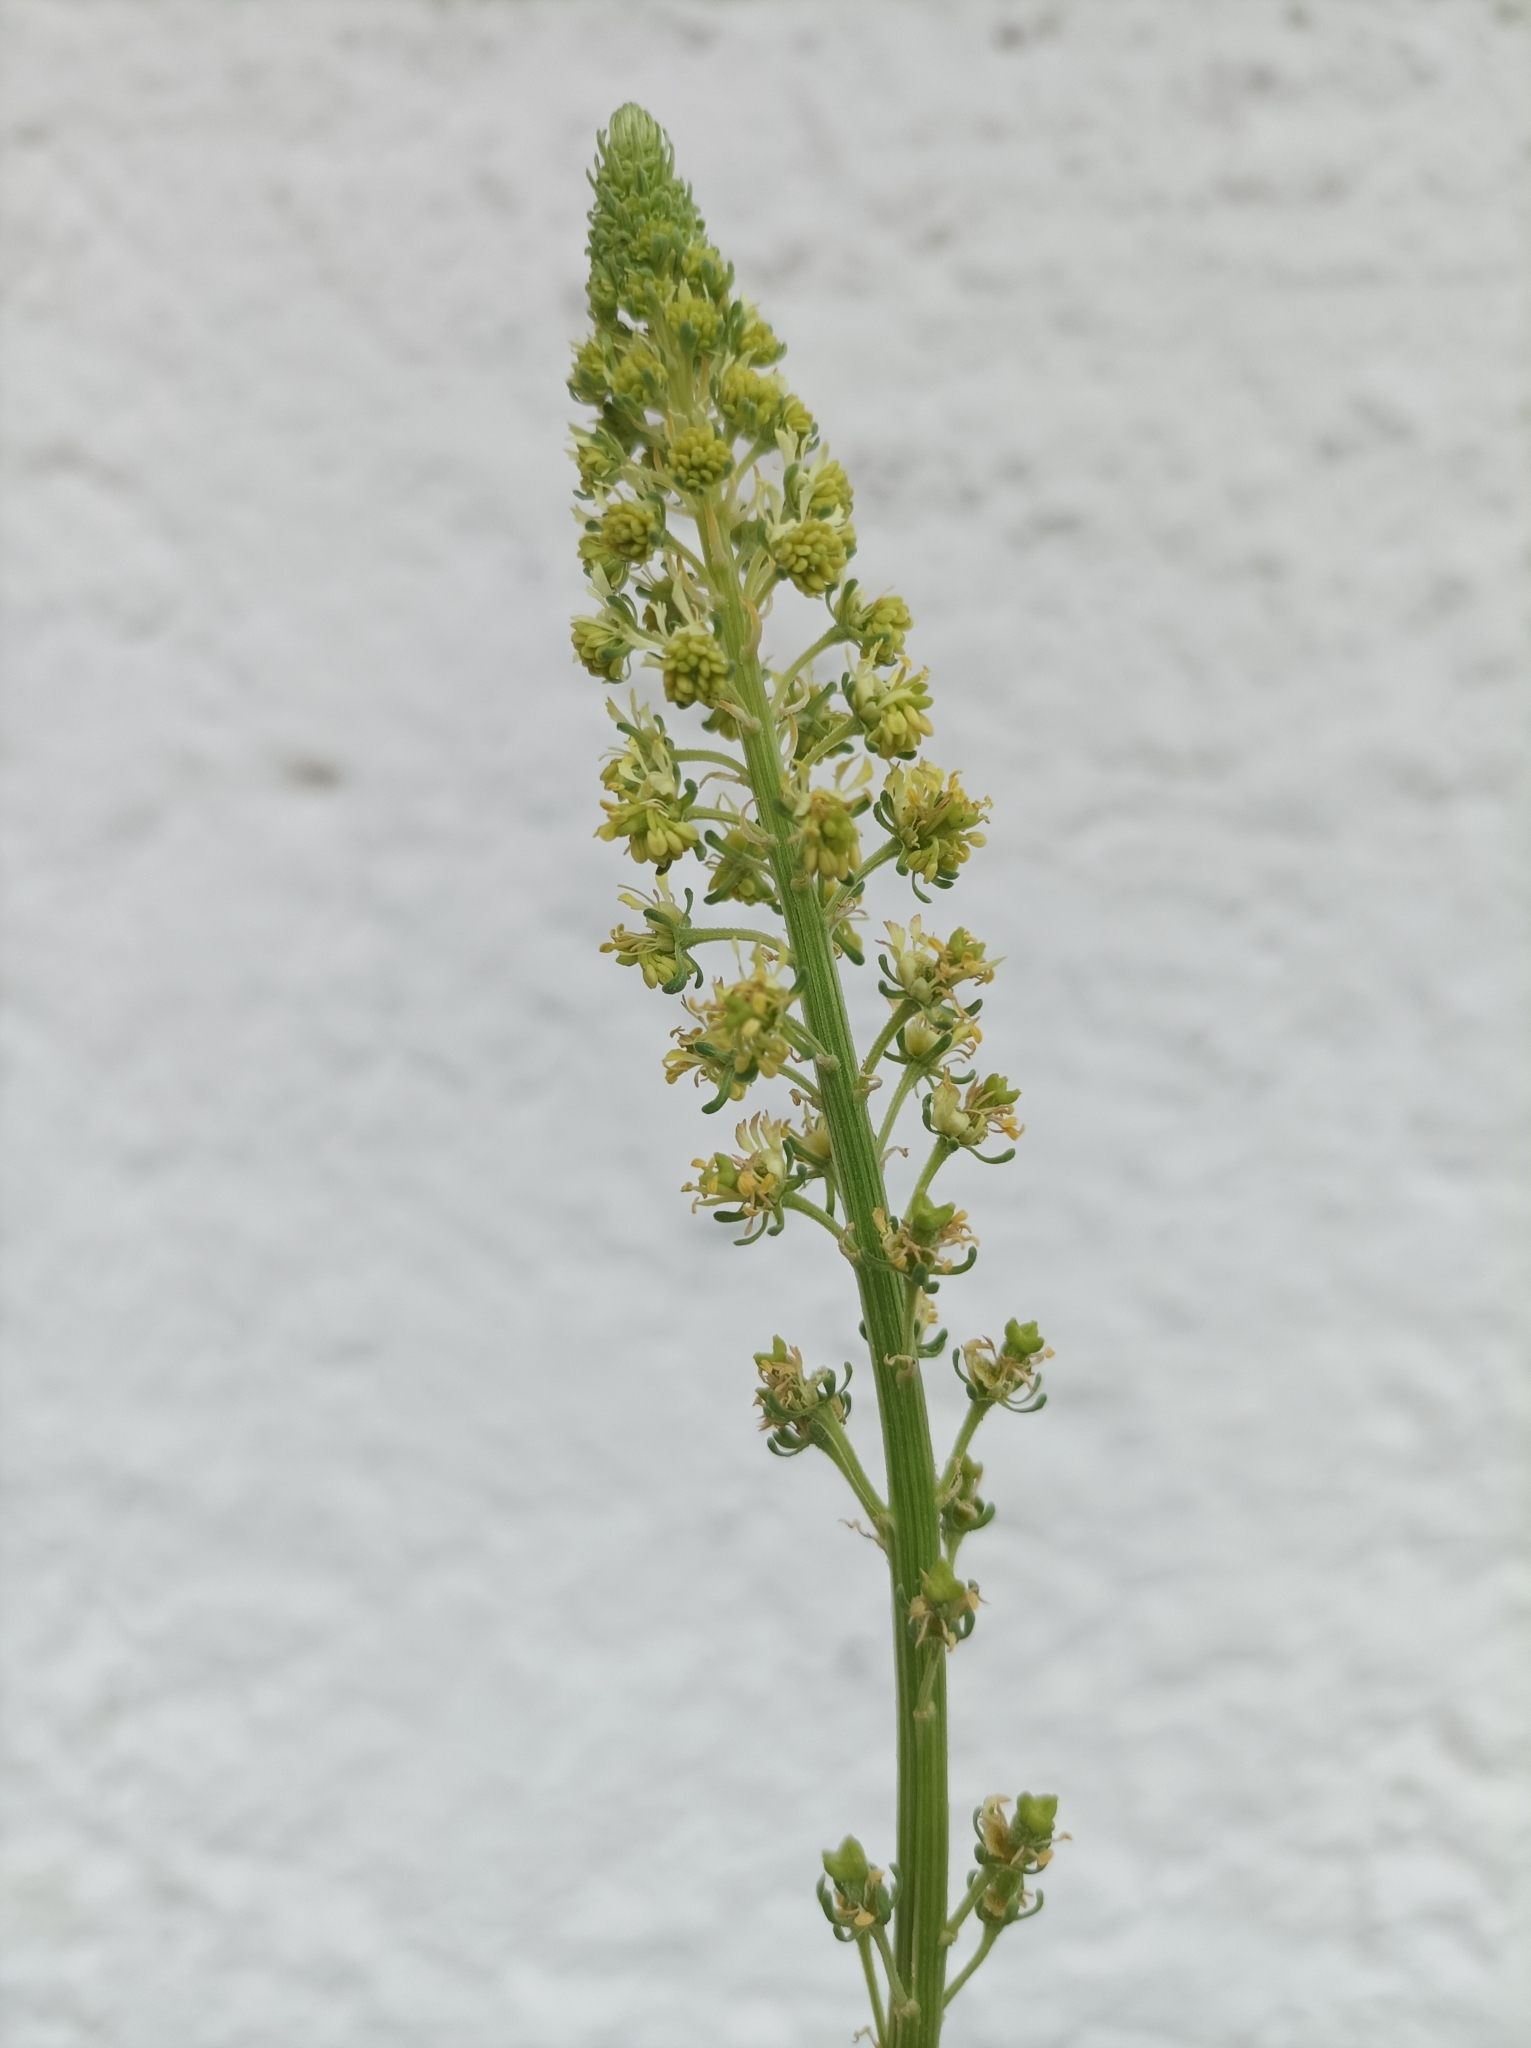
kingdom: Plantae
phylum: Tracheophyta
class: Magnoliopsida
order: Brassicales
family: Resedaceae
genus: Reseda
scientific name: Reseda lutea
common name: Wild mignonette
